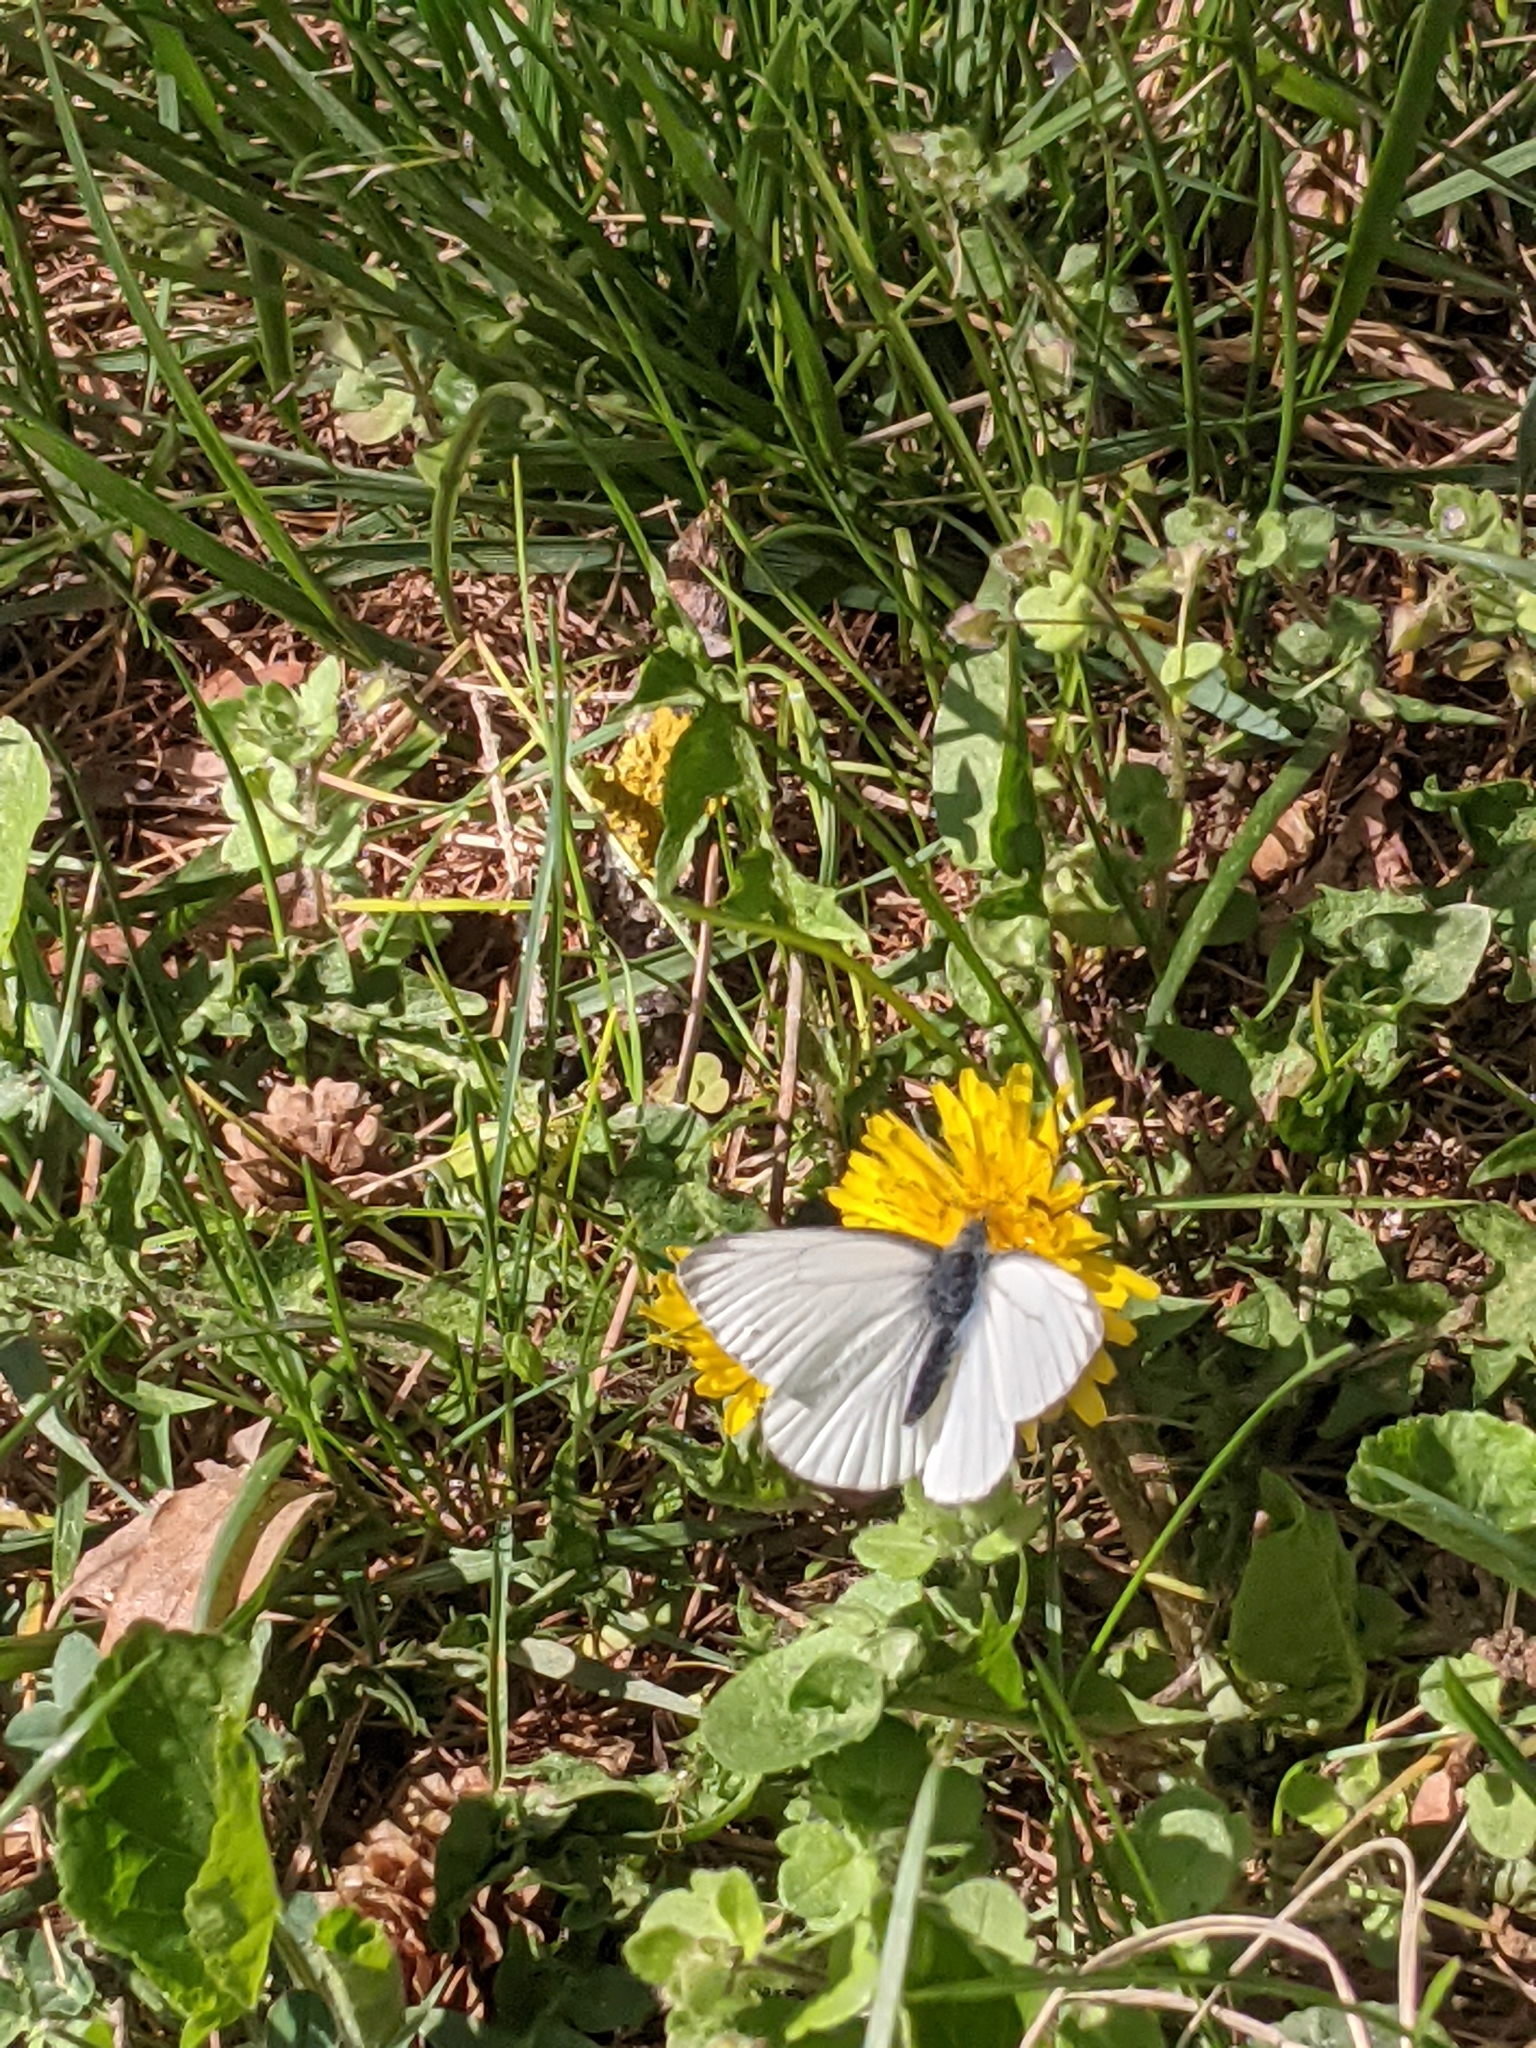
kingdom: Animalia
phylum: Arthropoda
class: Insecta
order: Lepidoptera
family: Pieridae
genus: Pieris
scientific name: Pieris napi
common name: Green-veined white
